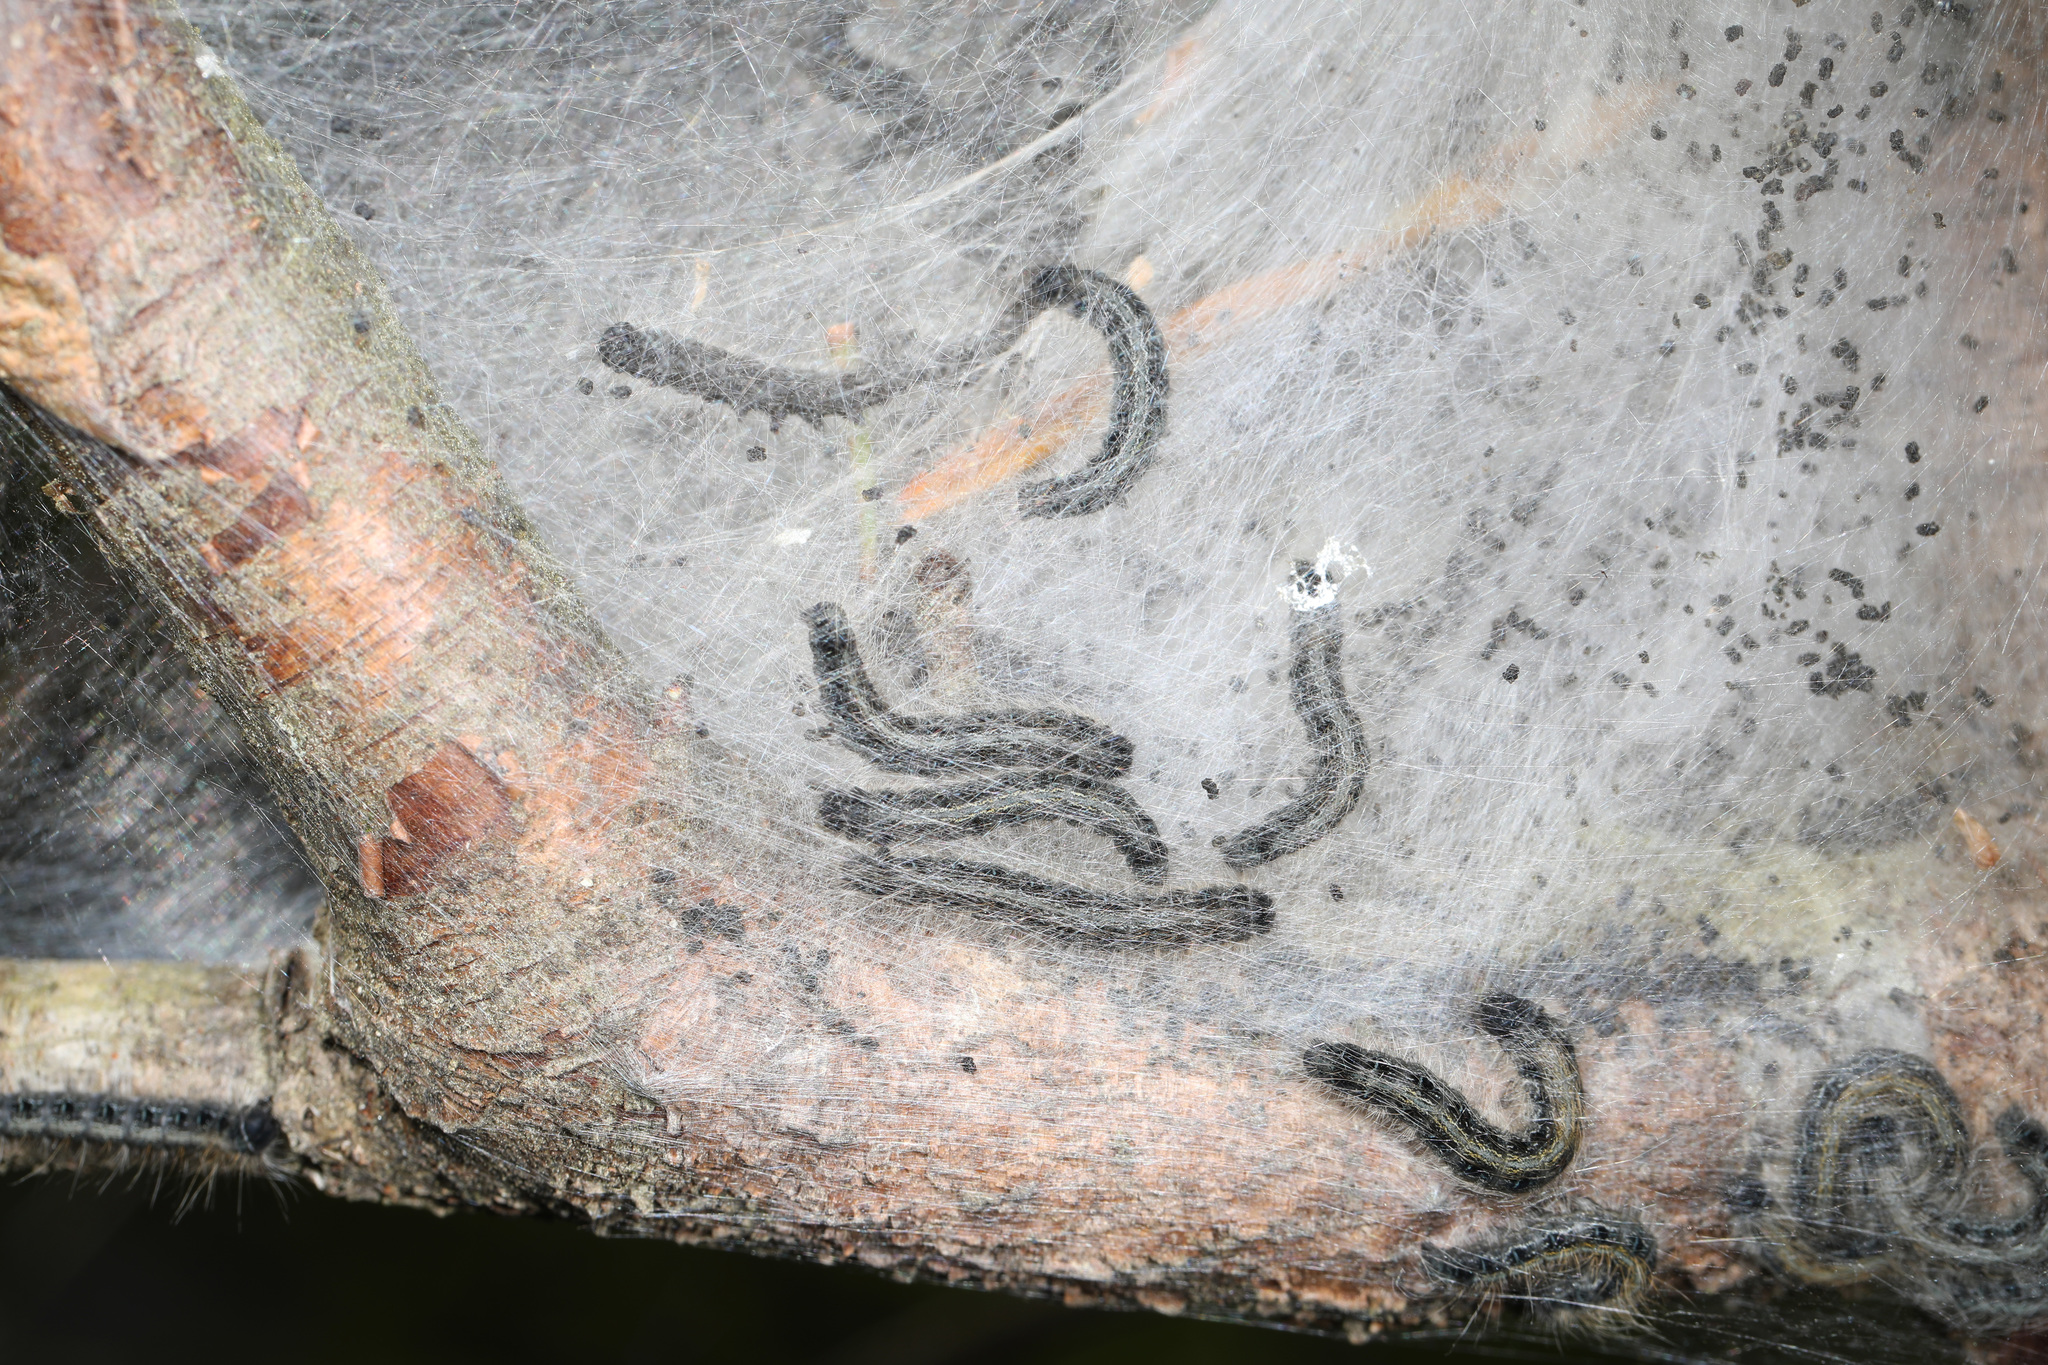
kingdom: Animalia
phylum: Arthropoda
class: Insecta
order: Lepidoptera
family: Lasiocampidae
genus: Malacosoma
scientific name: Malacosoma americana
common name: Eastern tent caterpillar moth
